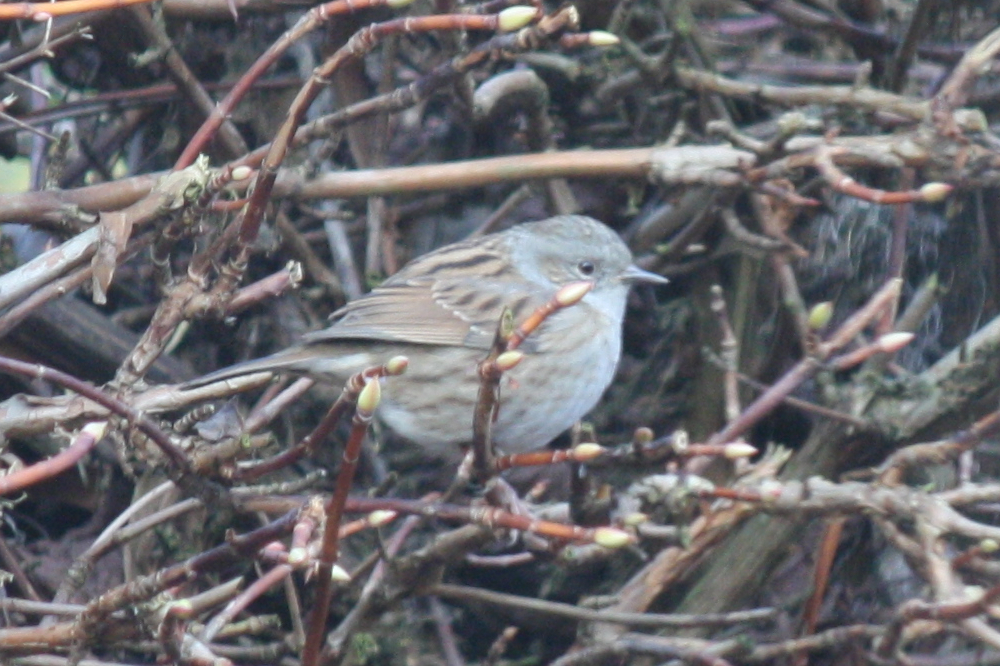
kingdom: Animalia
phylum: Chordata
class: Aves
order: Passeriformes
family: Prunellidae
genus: Prunella
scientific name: Prunella modularis
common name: Dunnock
